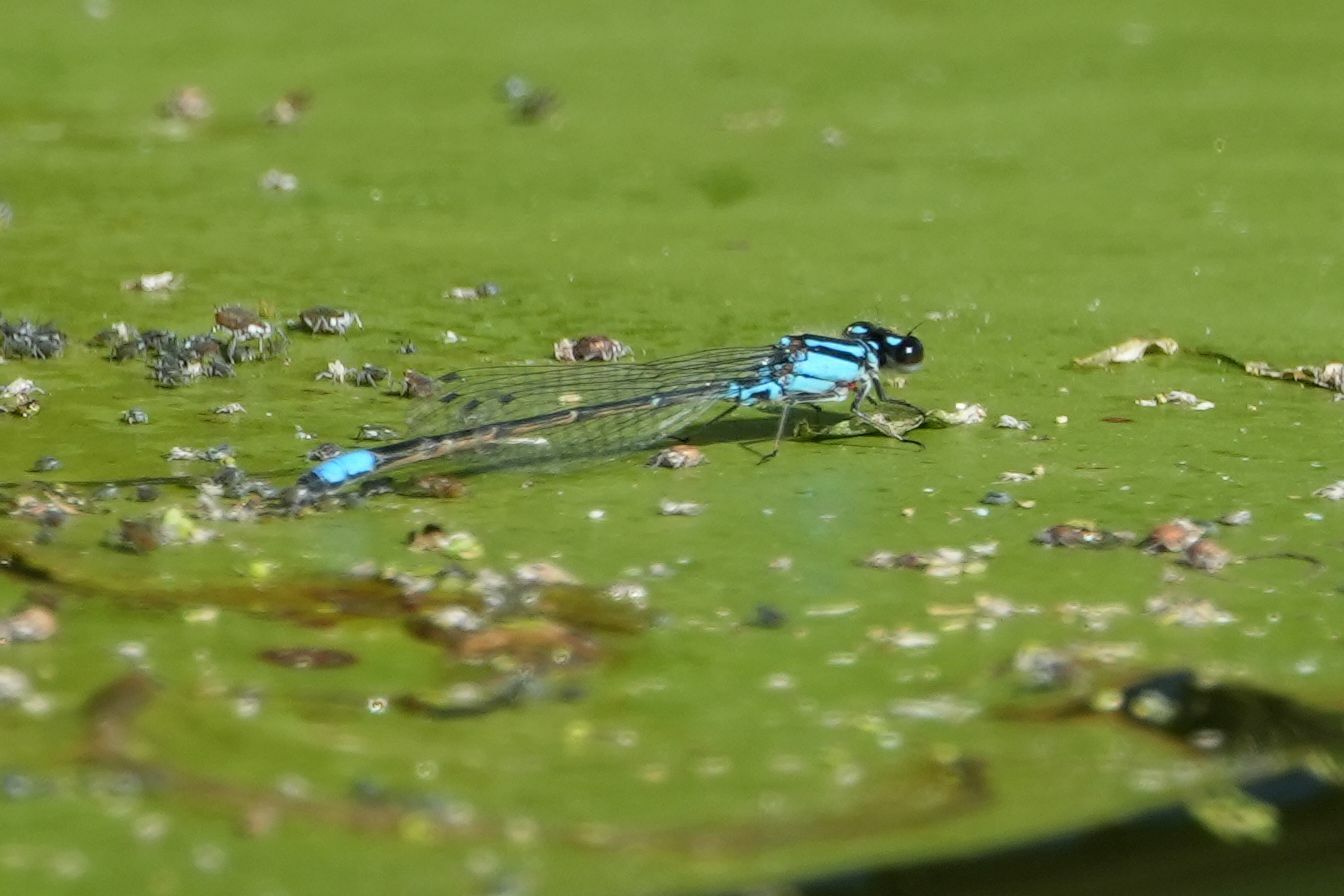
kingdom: Animalia
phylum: Arthropoda
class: Insecta
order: Odonata
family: Coenagrionidae
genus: Enallagma
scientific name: Enallagma geminatum
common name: Skimming bluet
